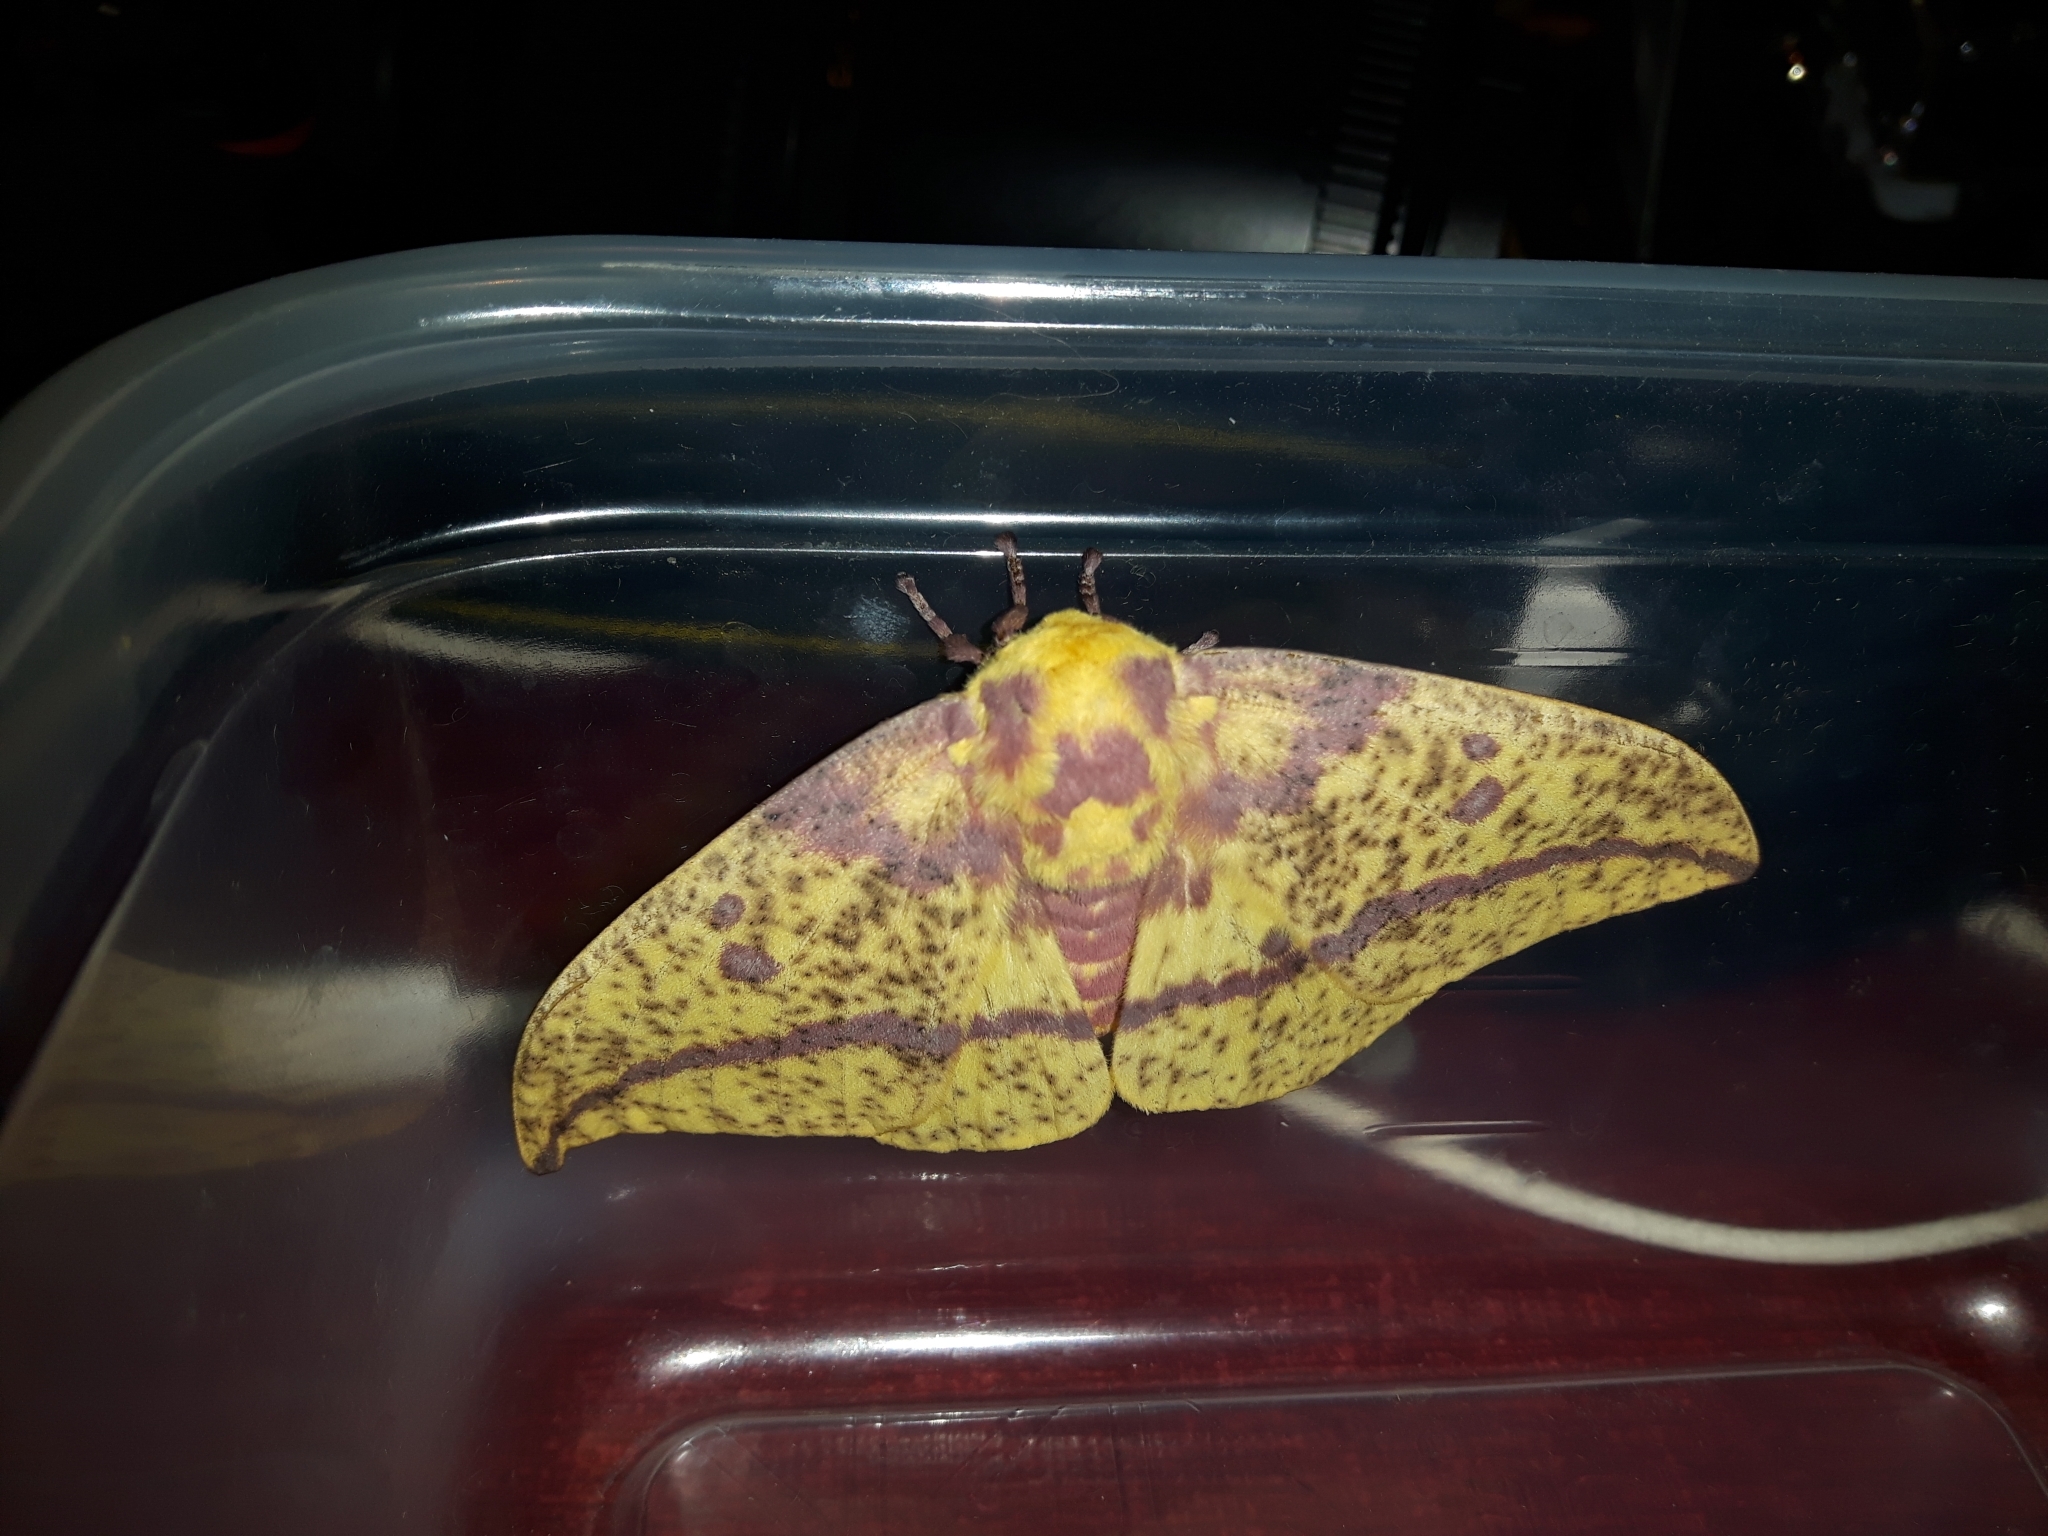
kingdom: Animalia
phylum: Arthropoda
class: Insecta
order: Lepidoptera
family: Saturniidae
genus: Eacles
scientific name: Eacles
